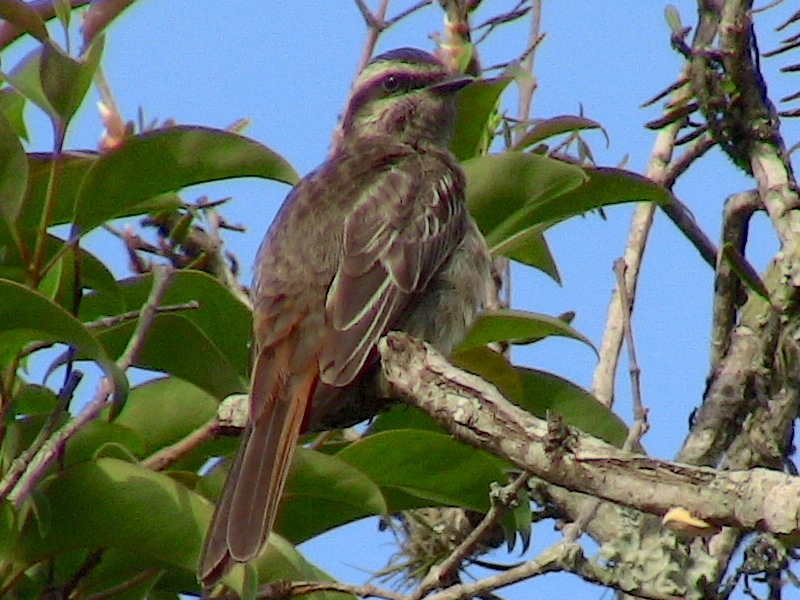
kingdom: Animalia
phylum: Chordata
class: Aves
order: Passeriformes
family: Tyrannidae
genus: Empidonomus
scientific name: Empidonomus varius
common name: Variegated flycatcher
